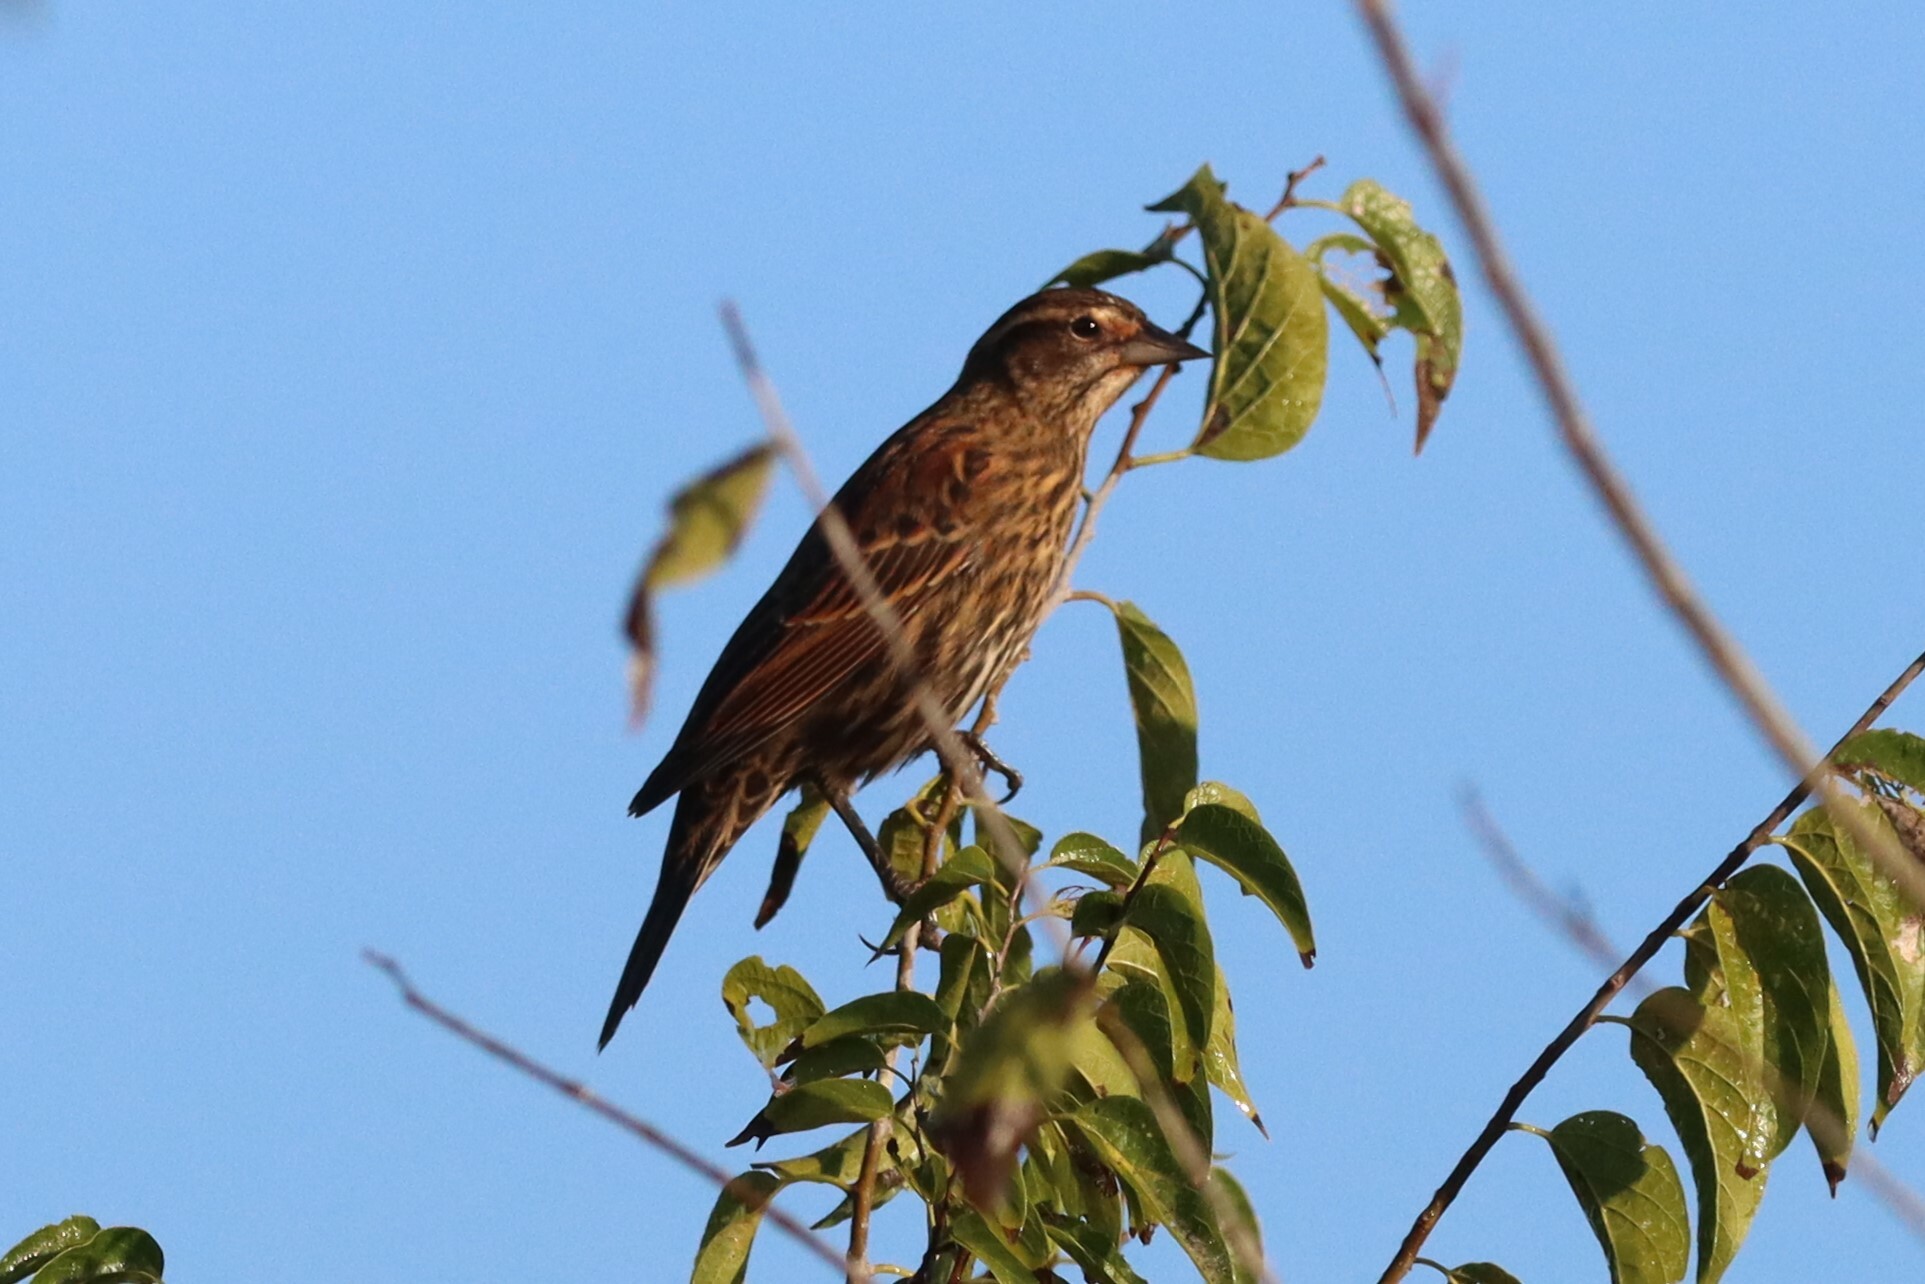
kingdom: Animalia
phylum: Chordata
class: Aves
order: Passeriformes
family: Icteridae
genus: Agelaius
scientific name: Agelaius phoeniceus
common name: Red-winged blackbird
